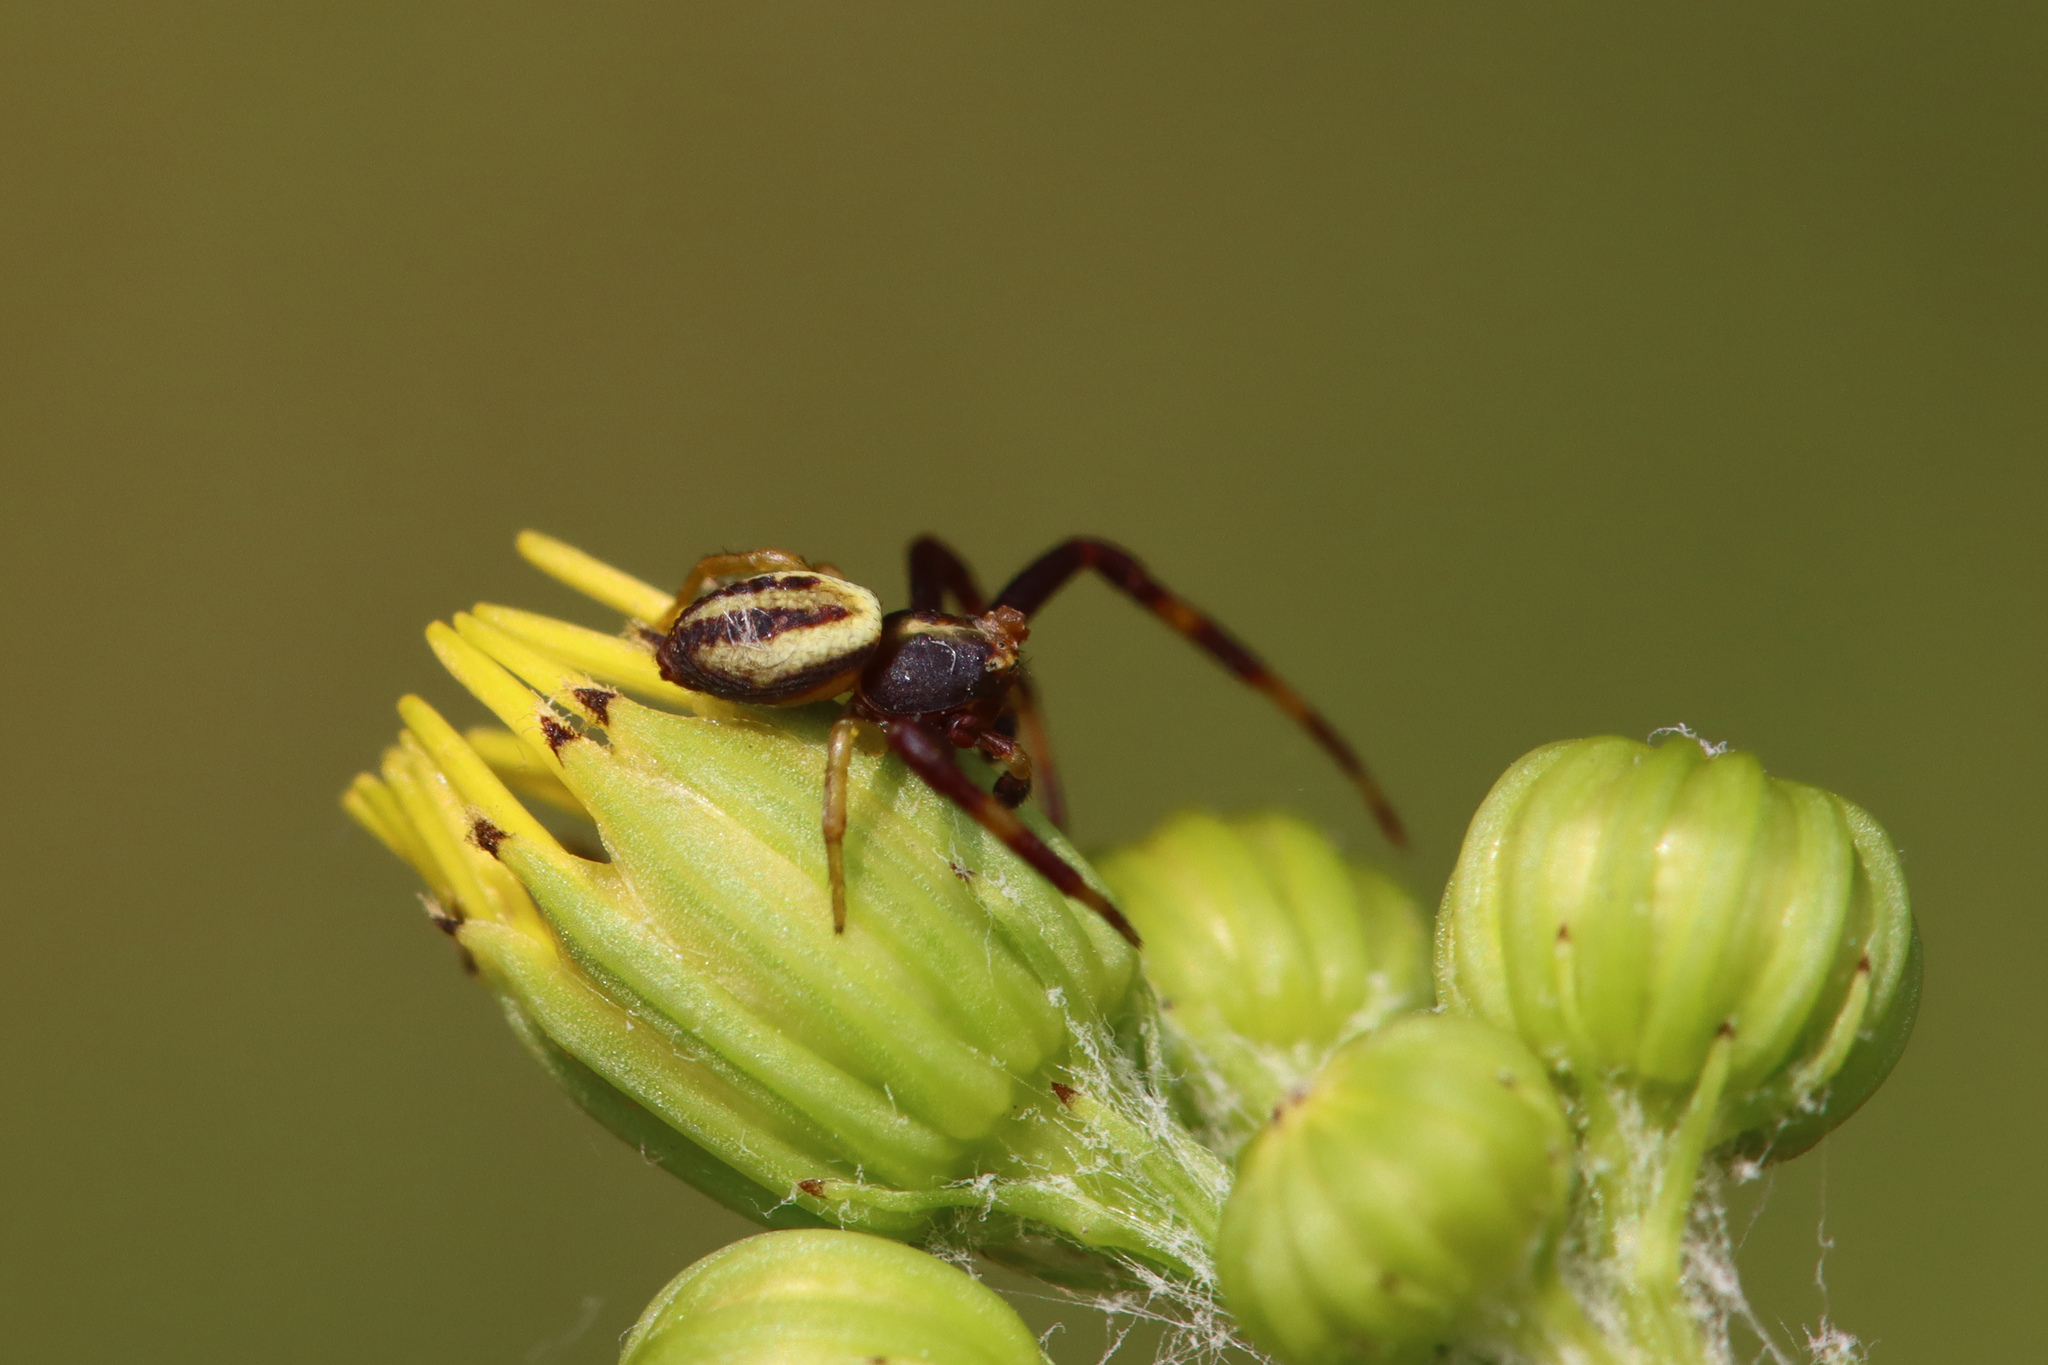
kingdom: Animalia
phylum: Arthropoda
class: Arachnida
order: Araneae
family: Thomisidae
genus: Misumena
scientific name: Misumena vatia
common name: Goldenrod crab spider
